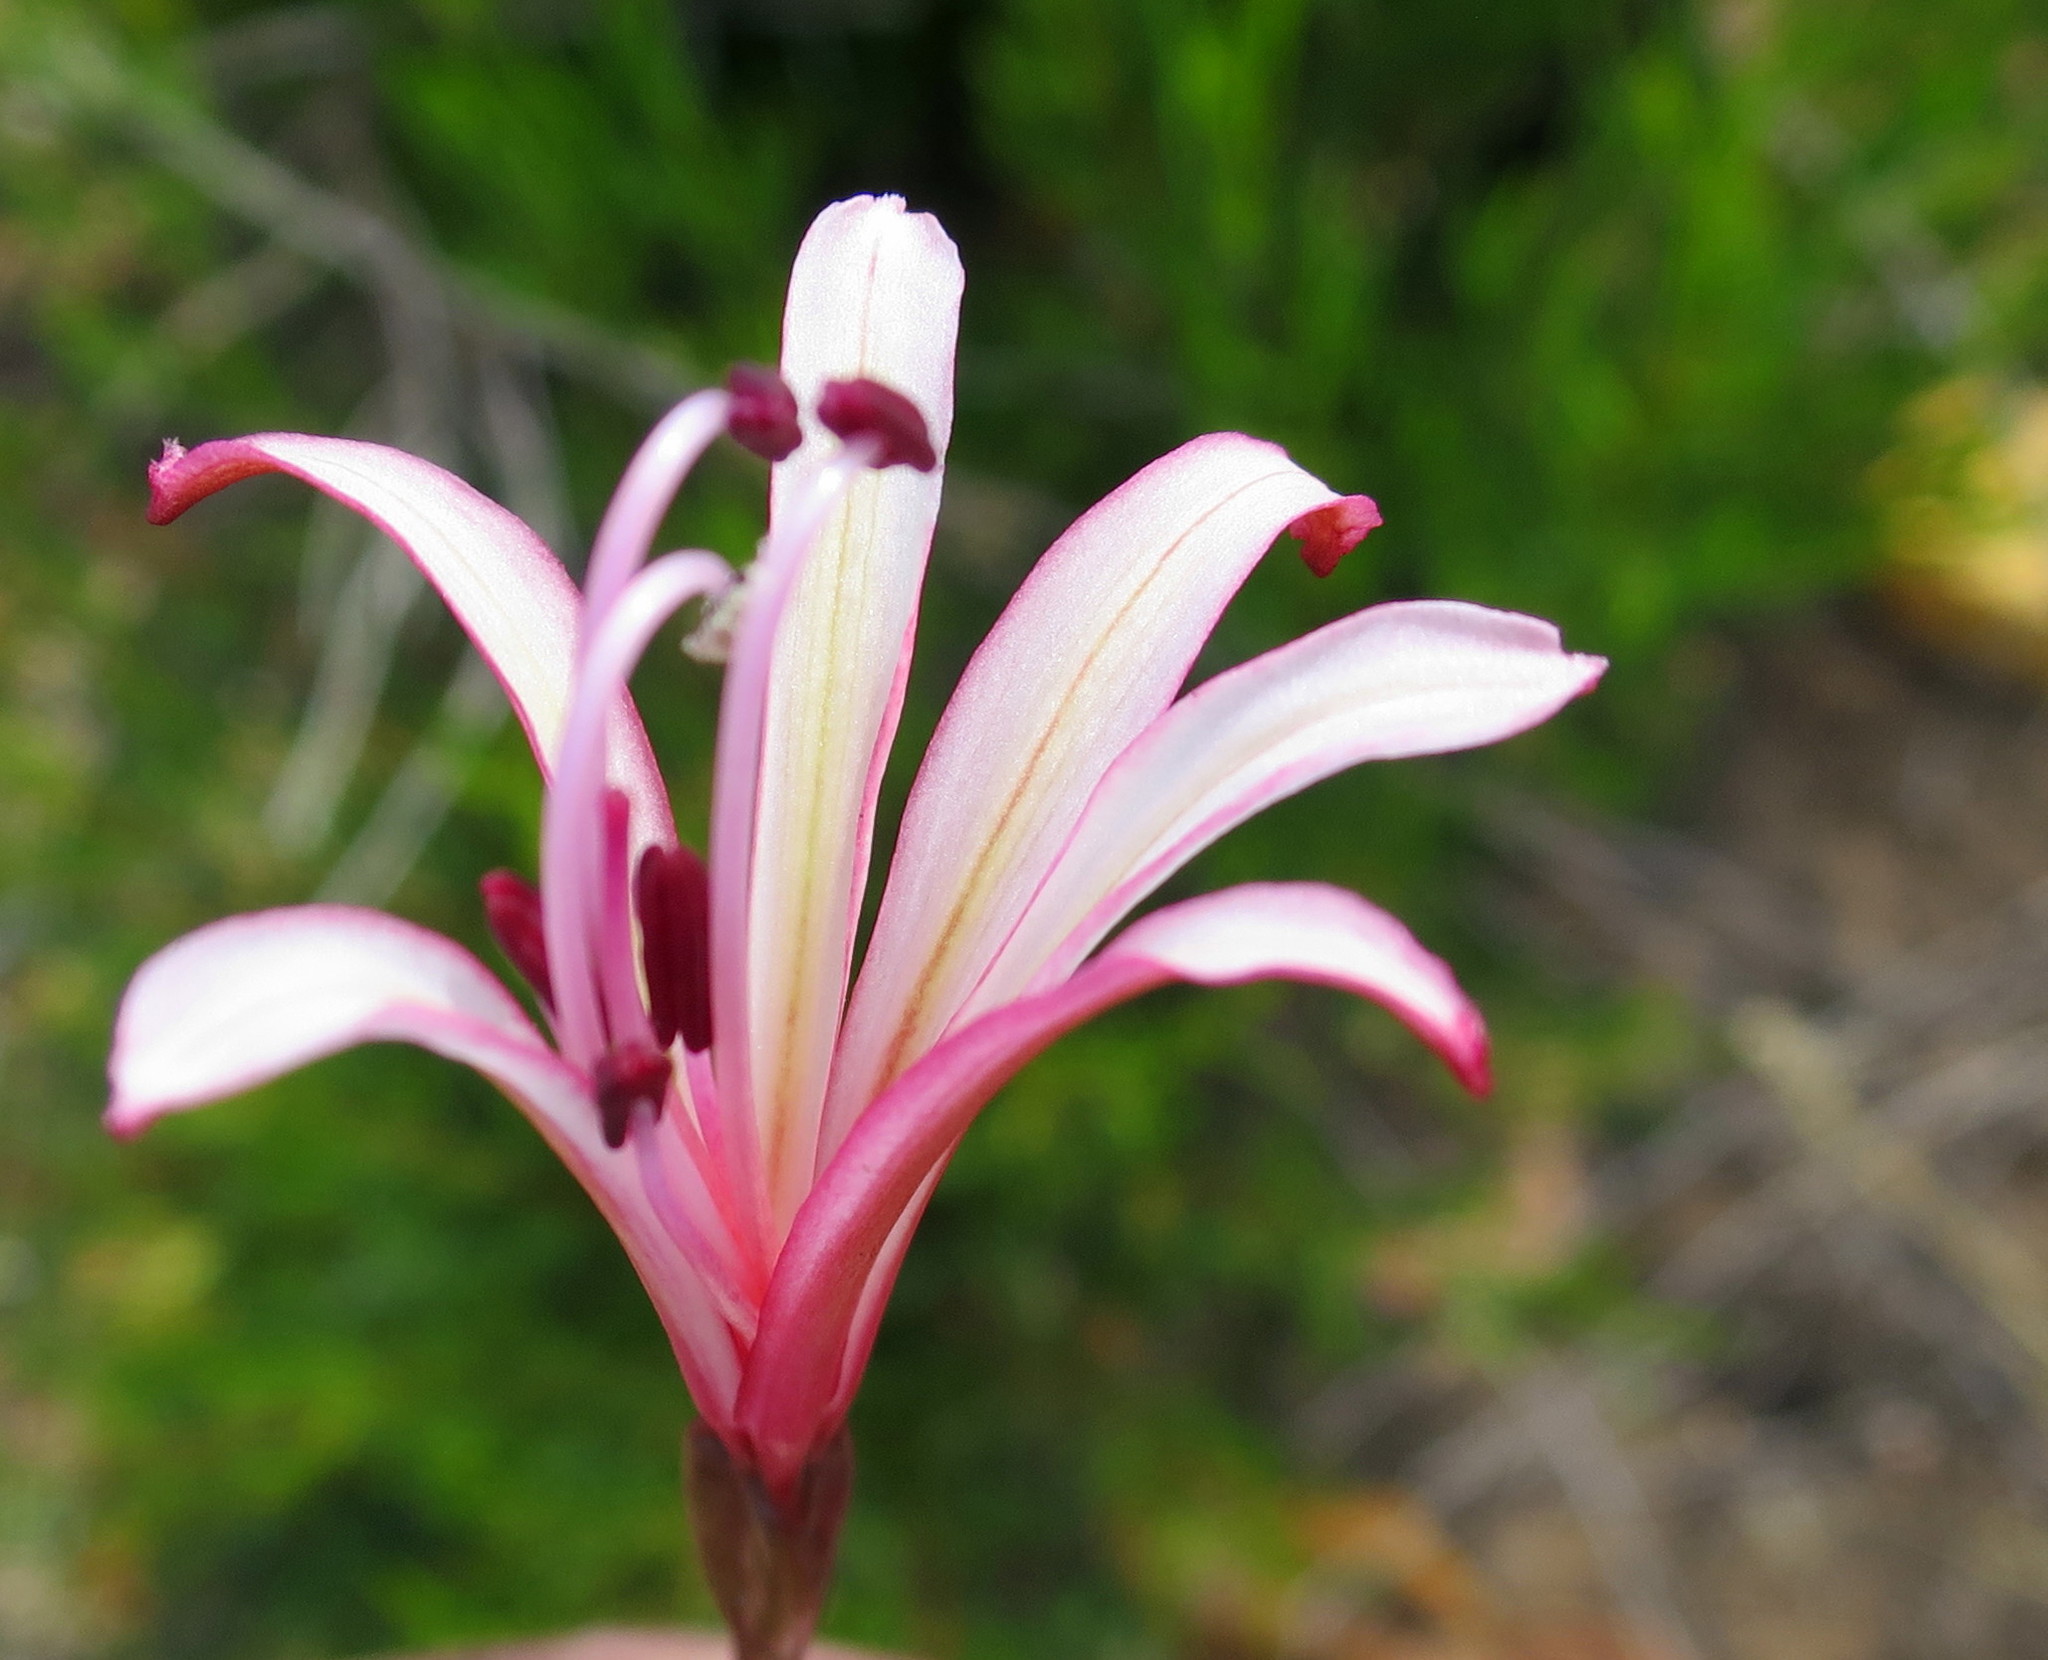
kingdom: Plantae
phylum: Tracheophyta
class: Liliopsida
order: Asparagales
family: Amaryllidaceae
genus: Brunsvigia
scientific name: Brunsvigia nervosa
